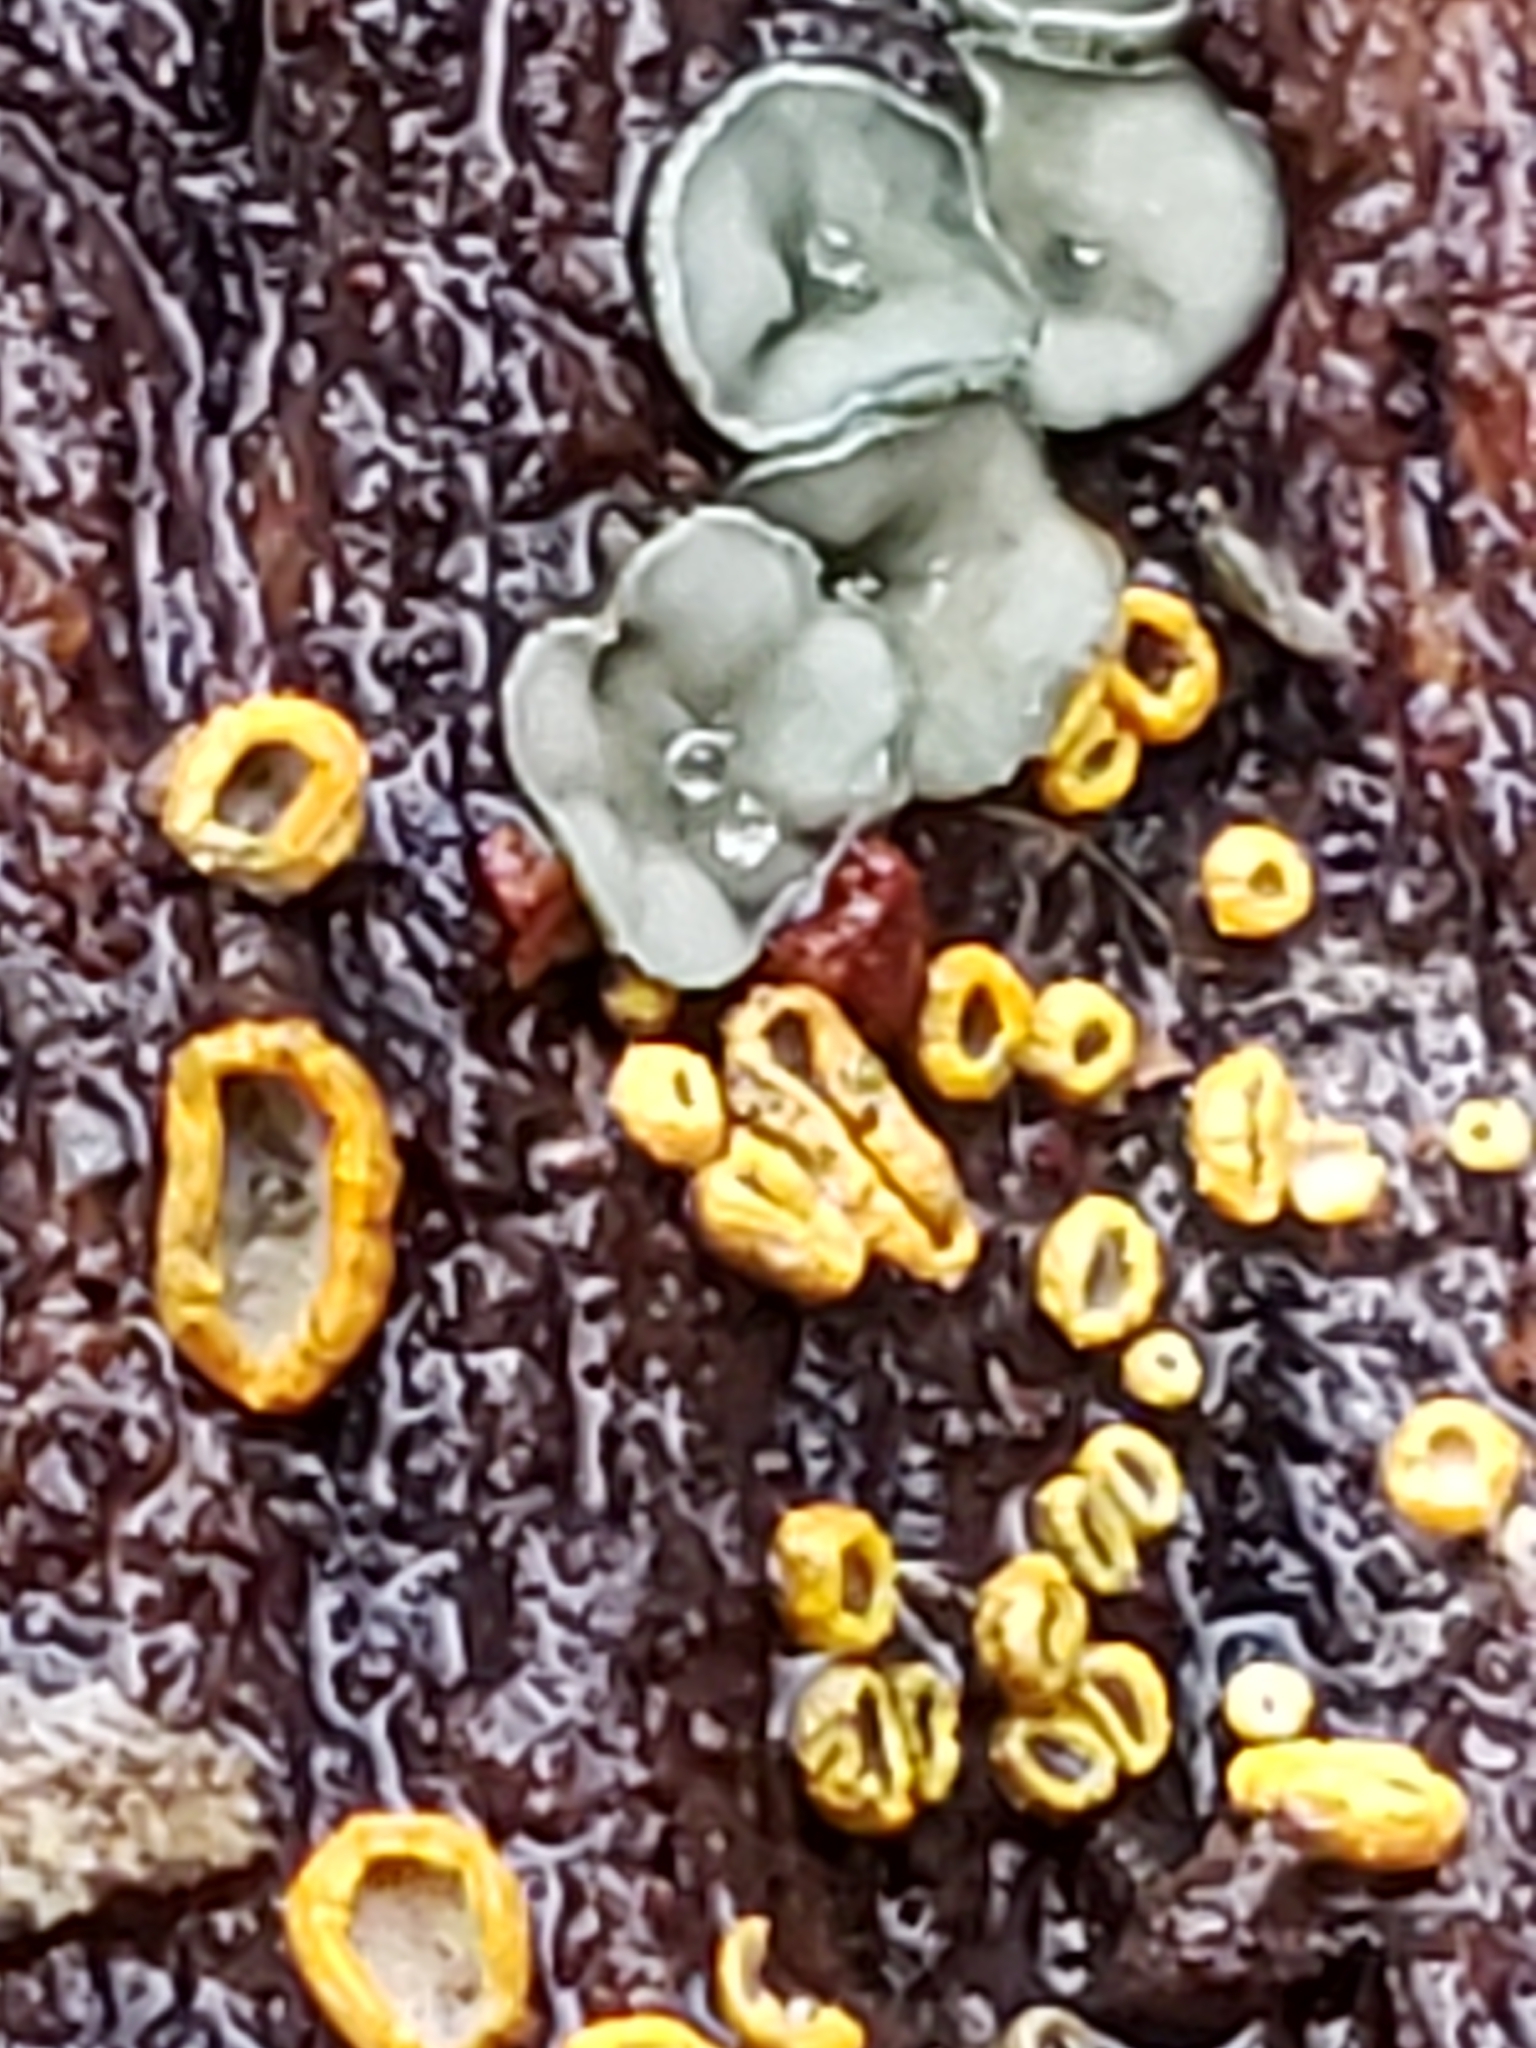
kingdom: Fungi
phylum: Ascomycota
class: Leotiomycetes
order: Helotiales
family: Chlorospleniaceae
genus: Chlorosplenium
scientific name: Chlorosplenium chlora
